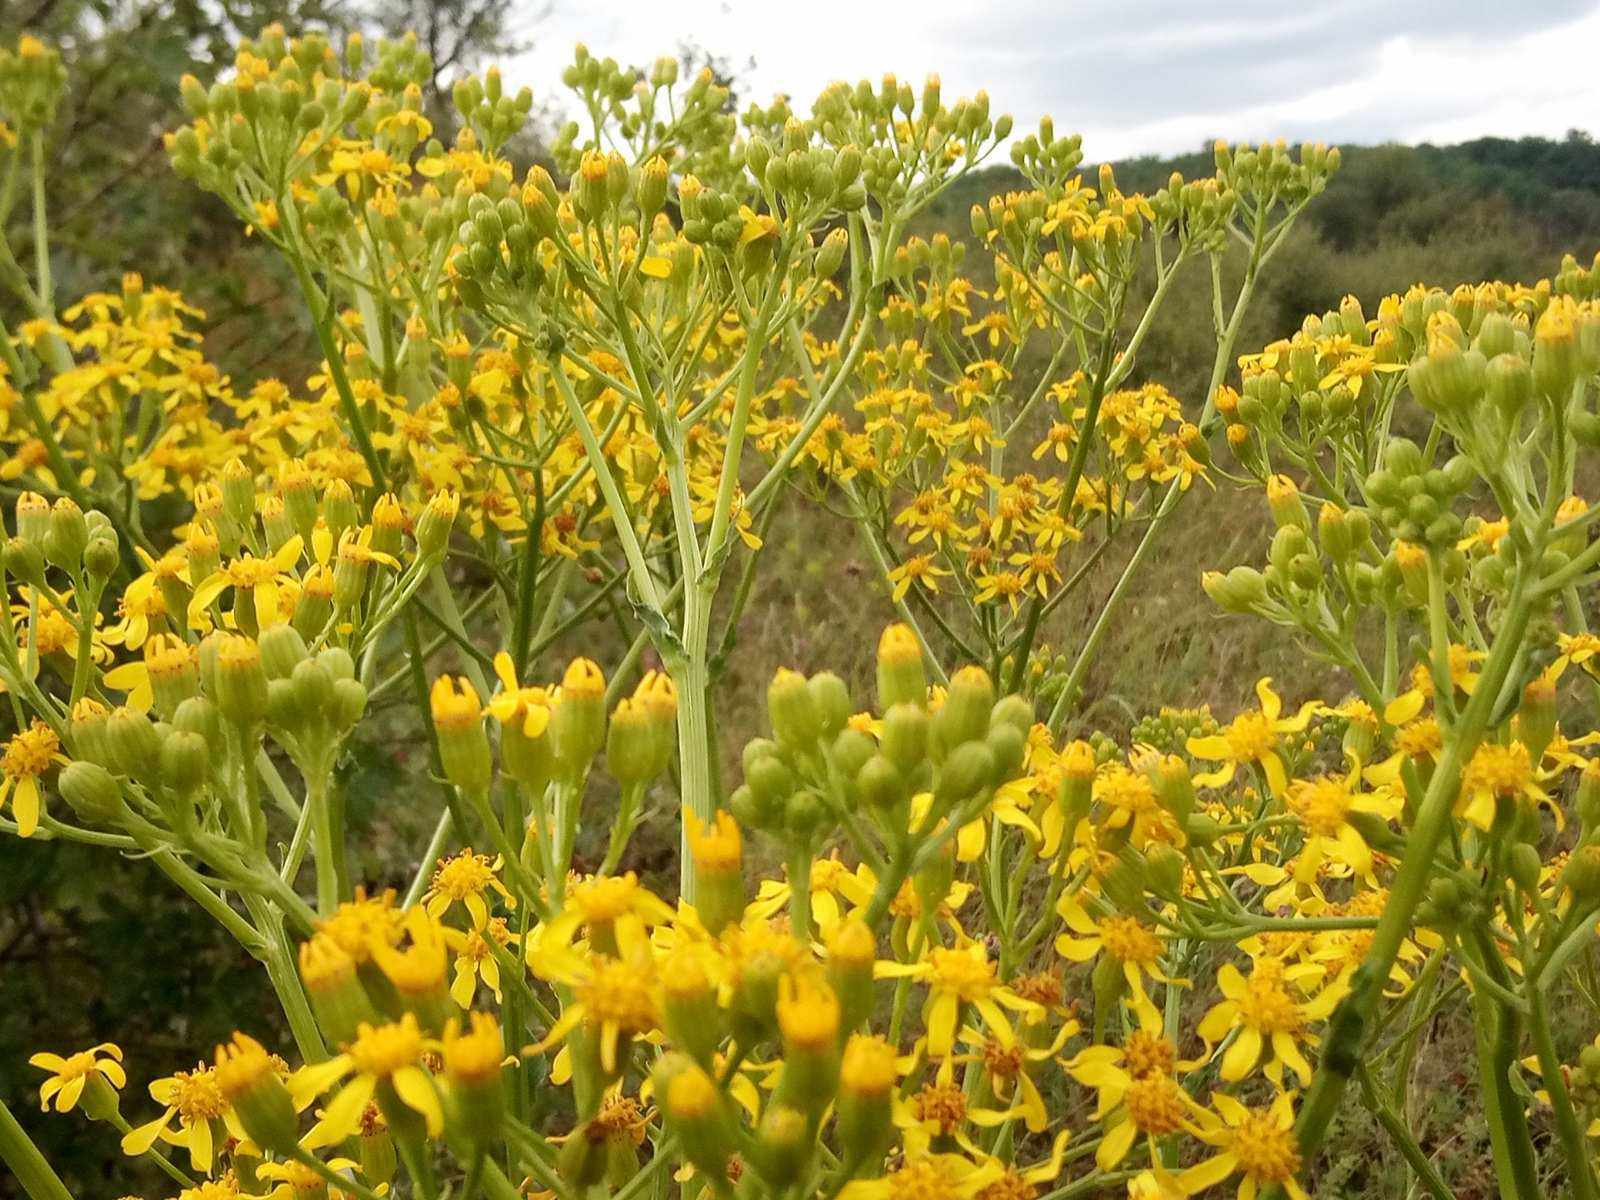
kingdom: Plantae
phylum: Tracheophyta
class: Magnoliopsida
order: Asterales
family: Asteraceae
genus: Senecio
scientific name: Senecio doria
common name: Golden ragwort
